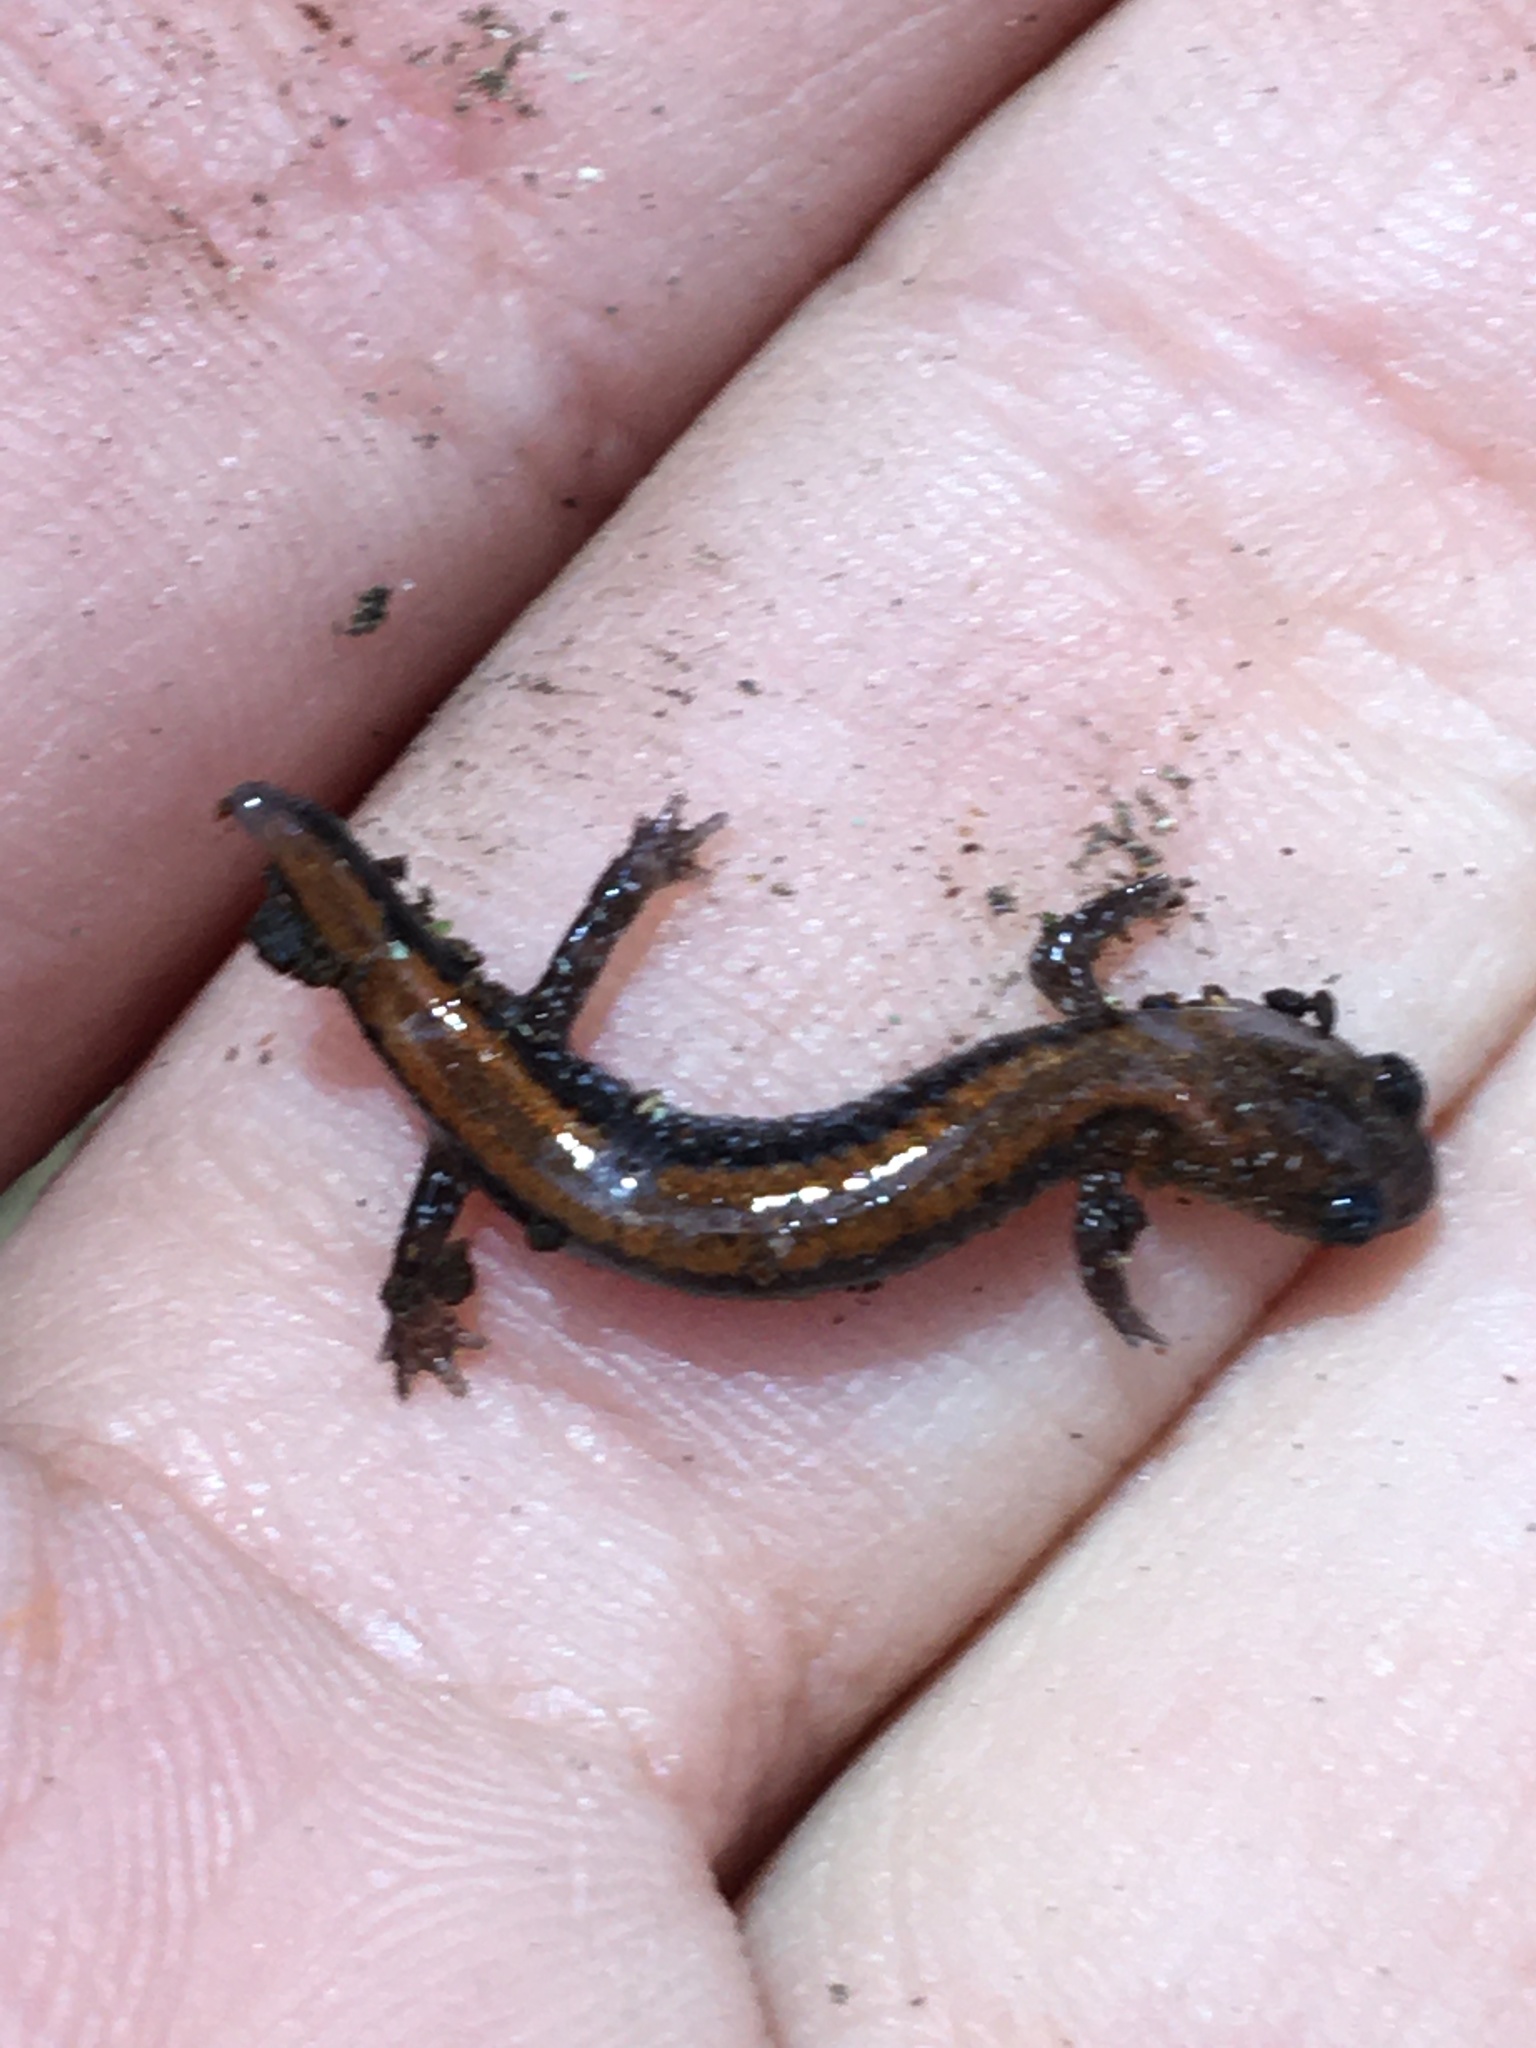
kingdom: Animalia
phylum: Chordata
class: Amphibia
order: Caudata
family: Plethodontidae
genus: Plethodon
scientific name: Plethodon cinereus
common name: Redback salamander
